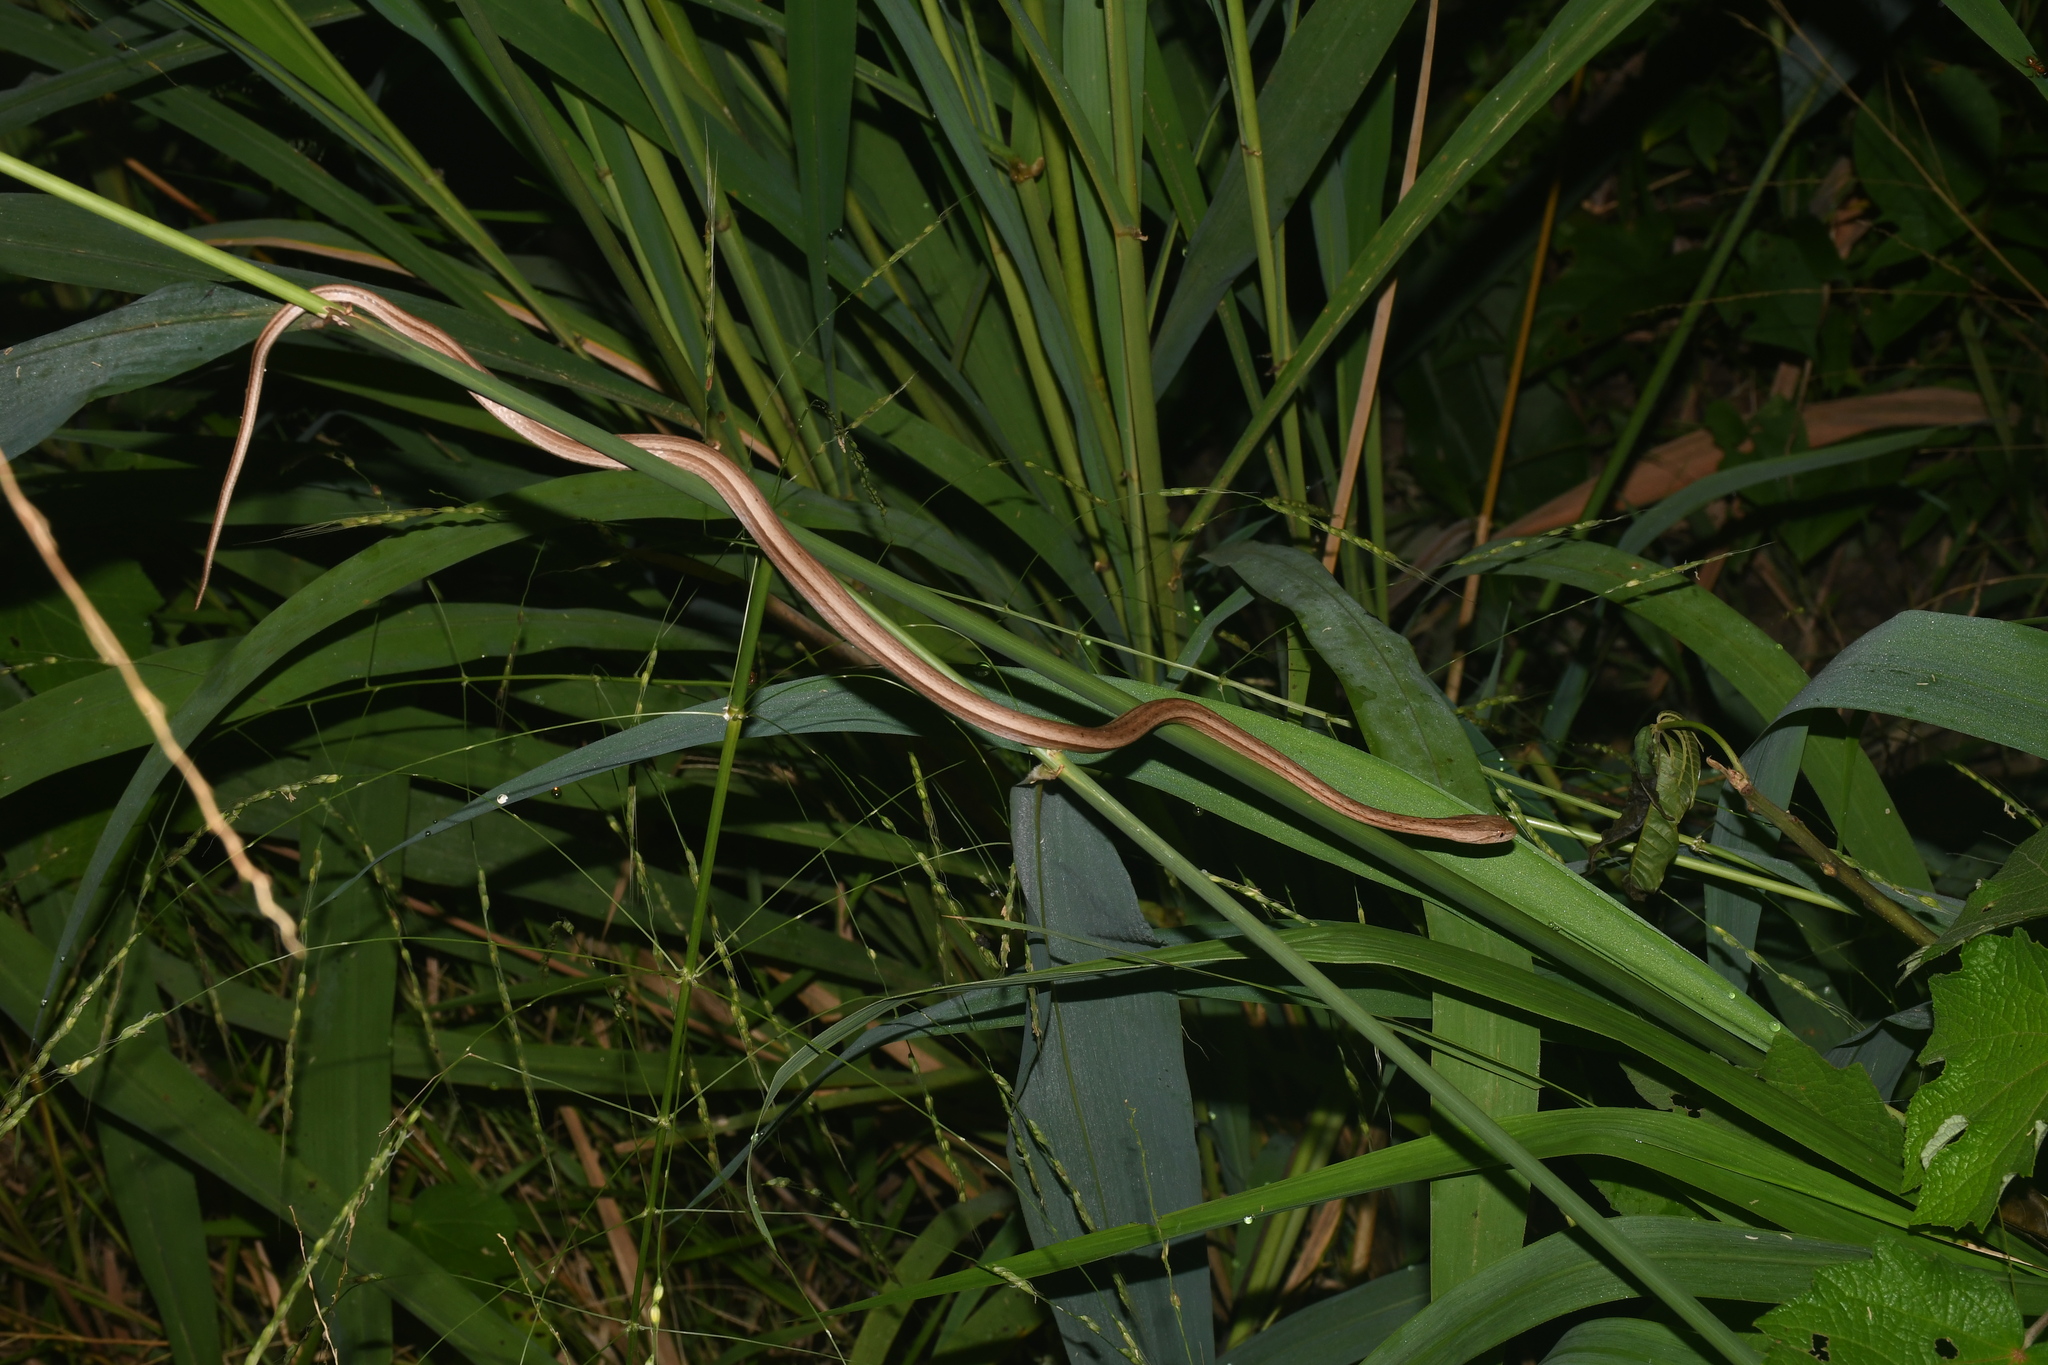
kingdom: Animalia
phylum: Chordata
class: Squamata
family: Colubridae
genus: Thamnodynastes
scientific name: Thamnodynastes pallidus
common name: Amazon coastal house snake
